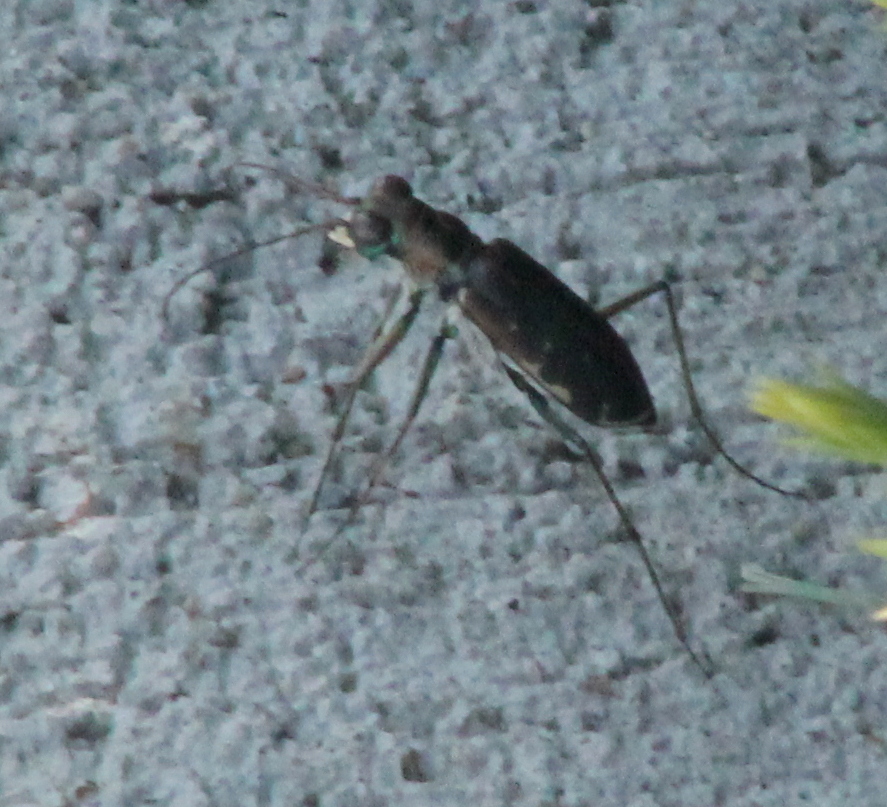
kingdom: Animalia
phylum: Arthropoda
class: Insecta
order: Coleoptera
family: Carabidae
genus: Cicindela
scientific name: Cicindela punctulata
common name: Punctured tiger beetle
